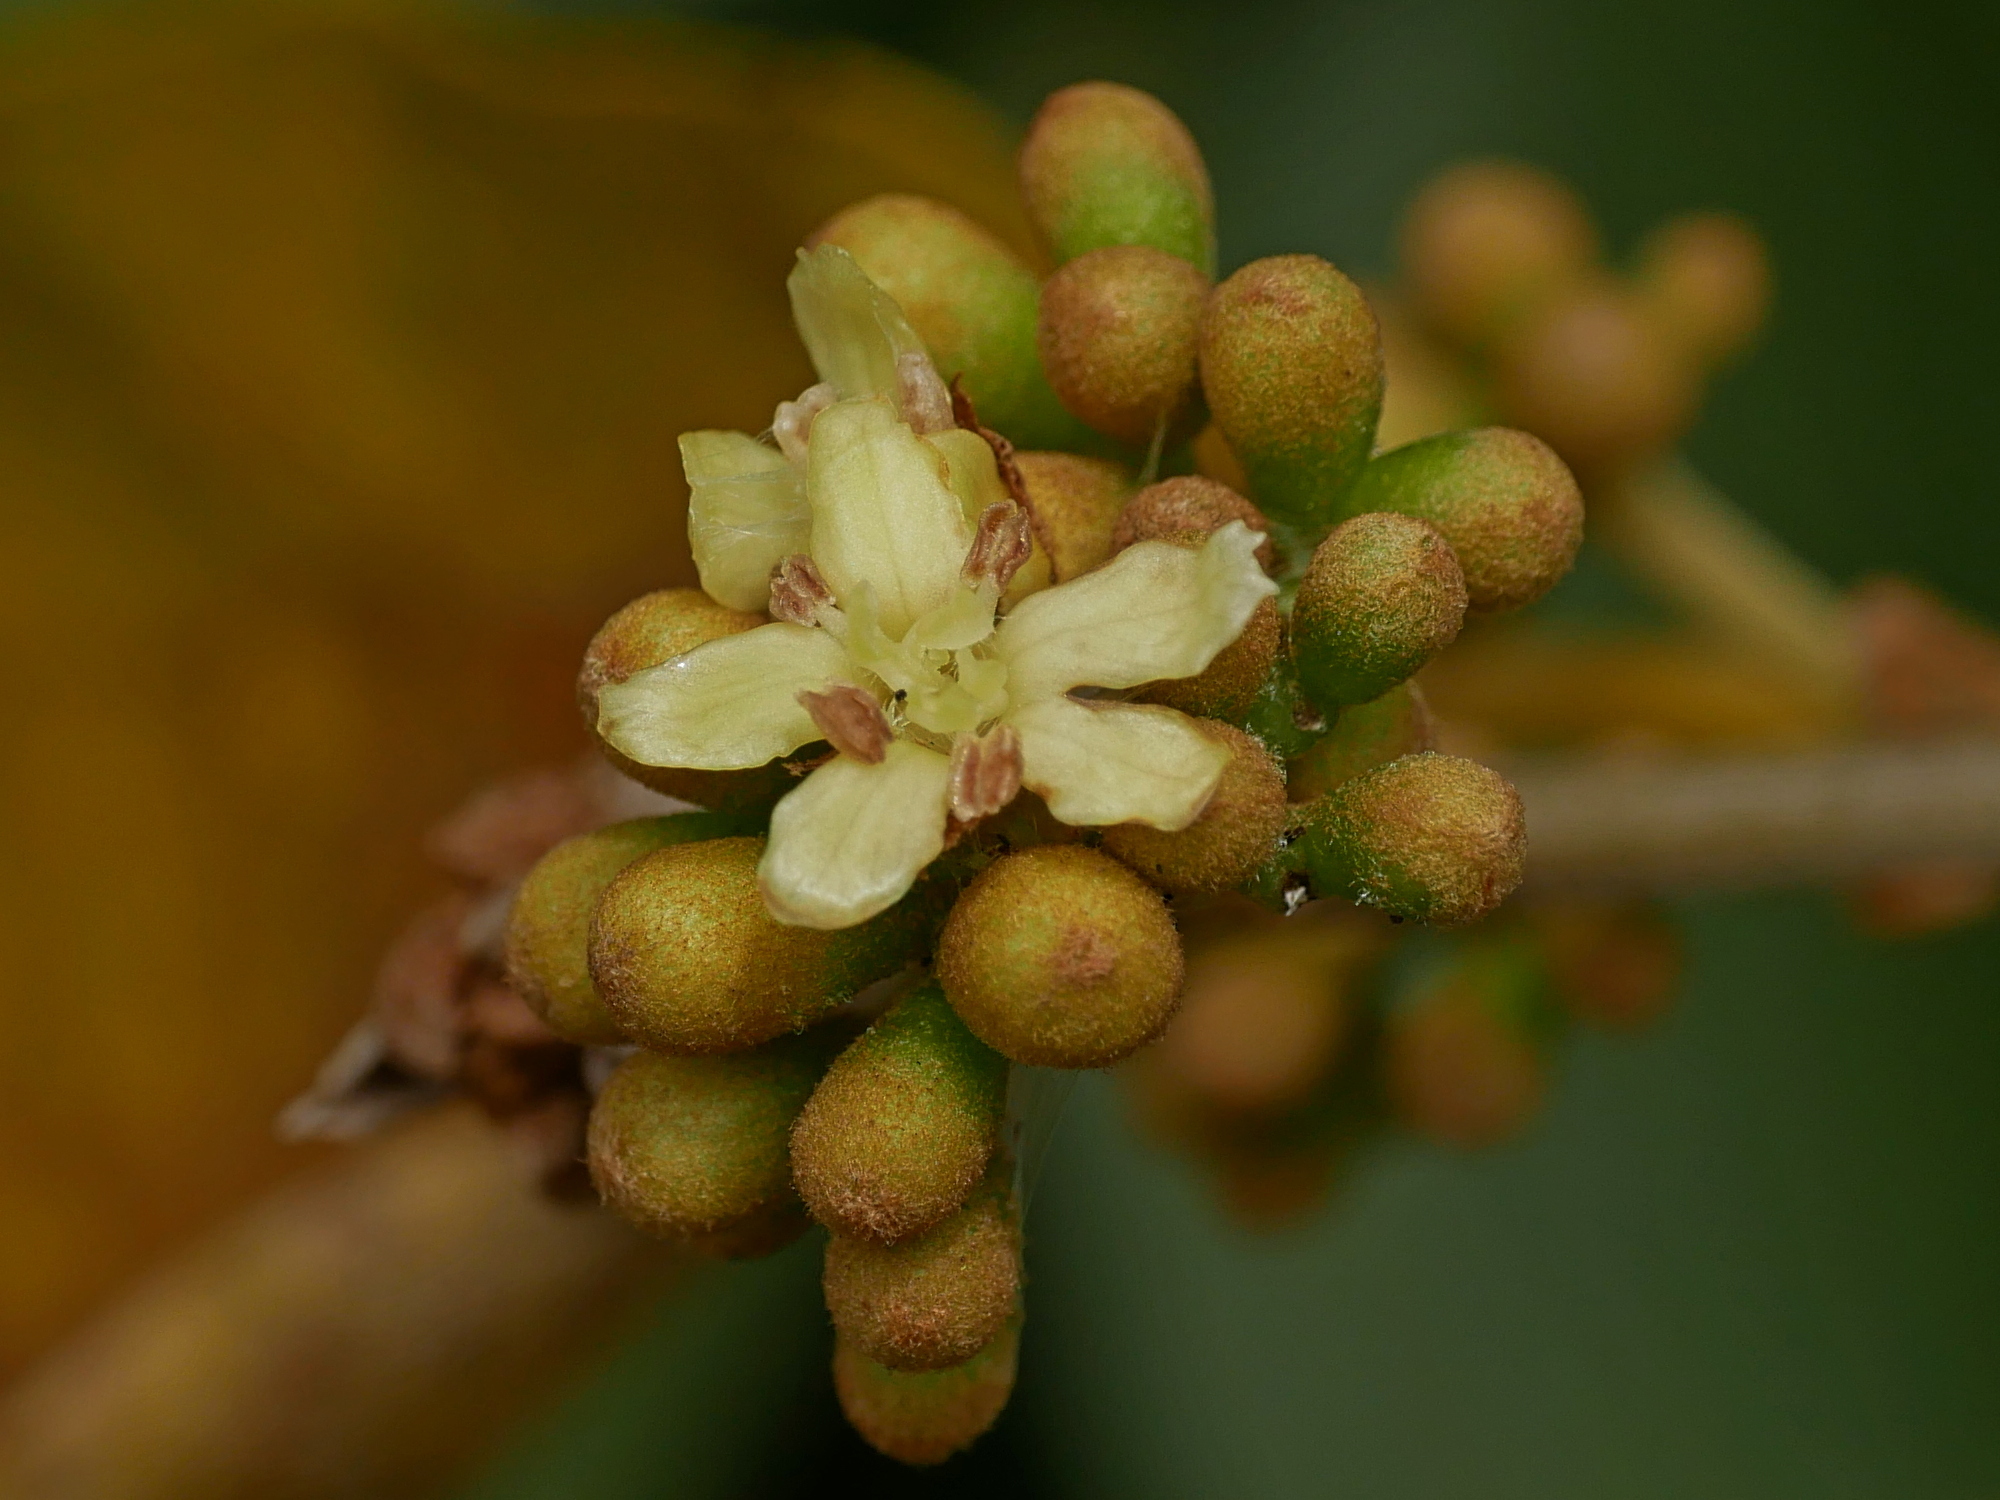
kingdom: Plantae
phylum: Tracheophyta
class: Magnoliopsida
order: Boraginales
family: Cordiaceae
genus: Cordia
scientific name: Cordia dichotoma
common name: Fragrant manjack
